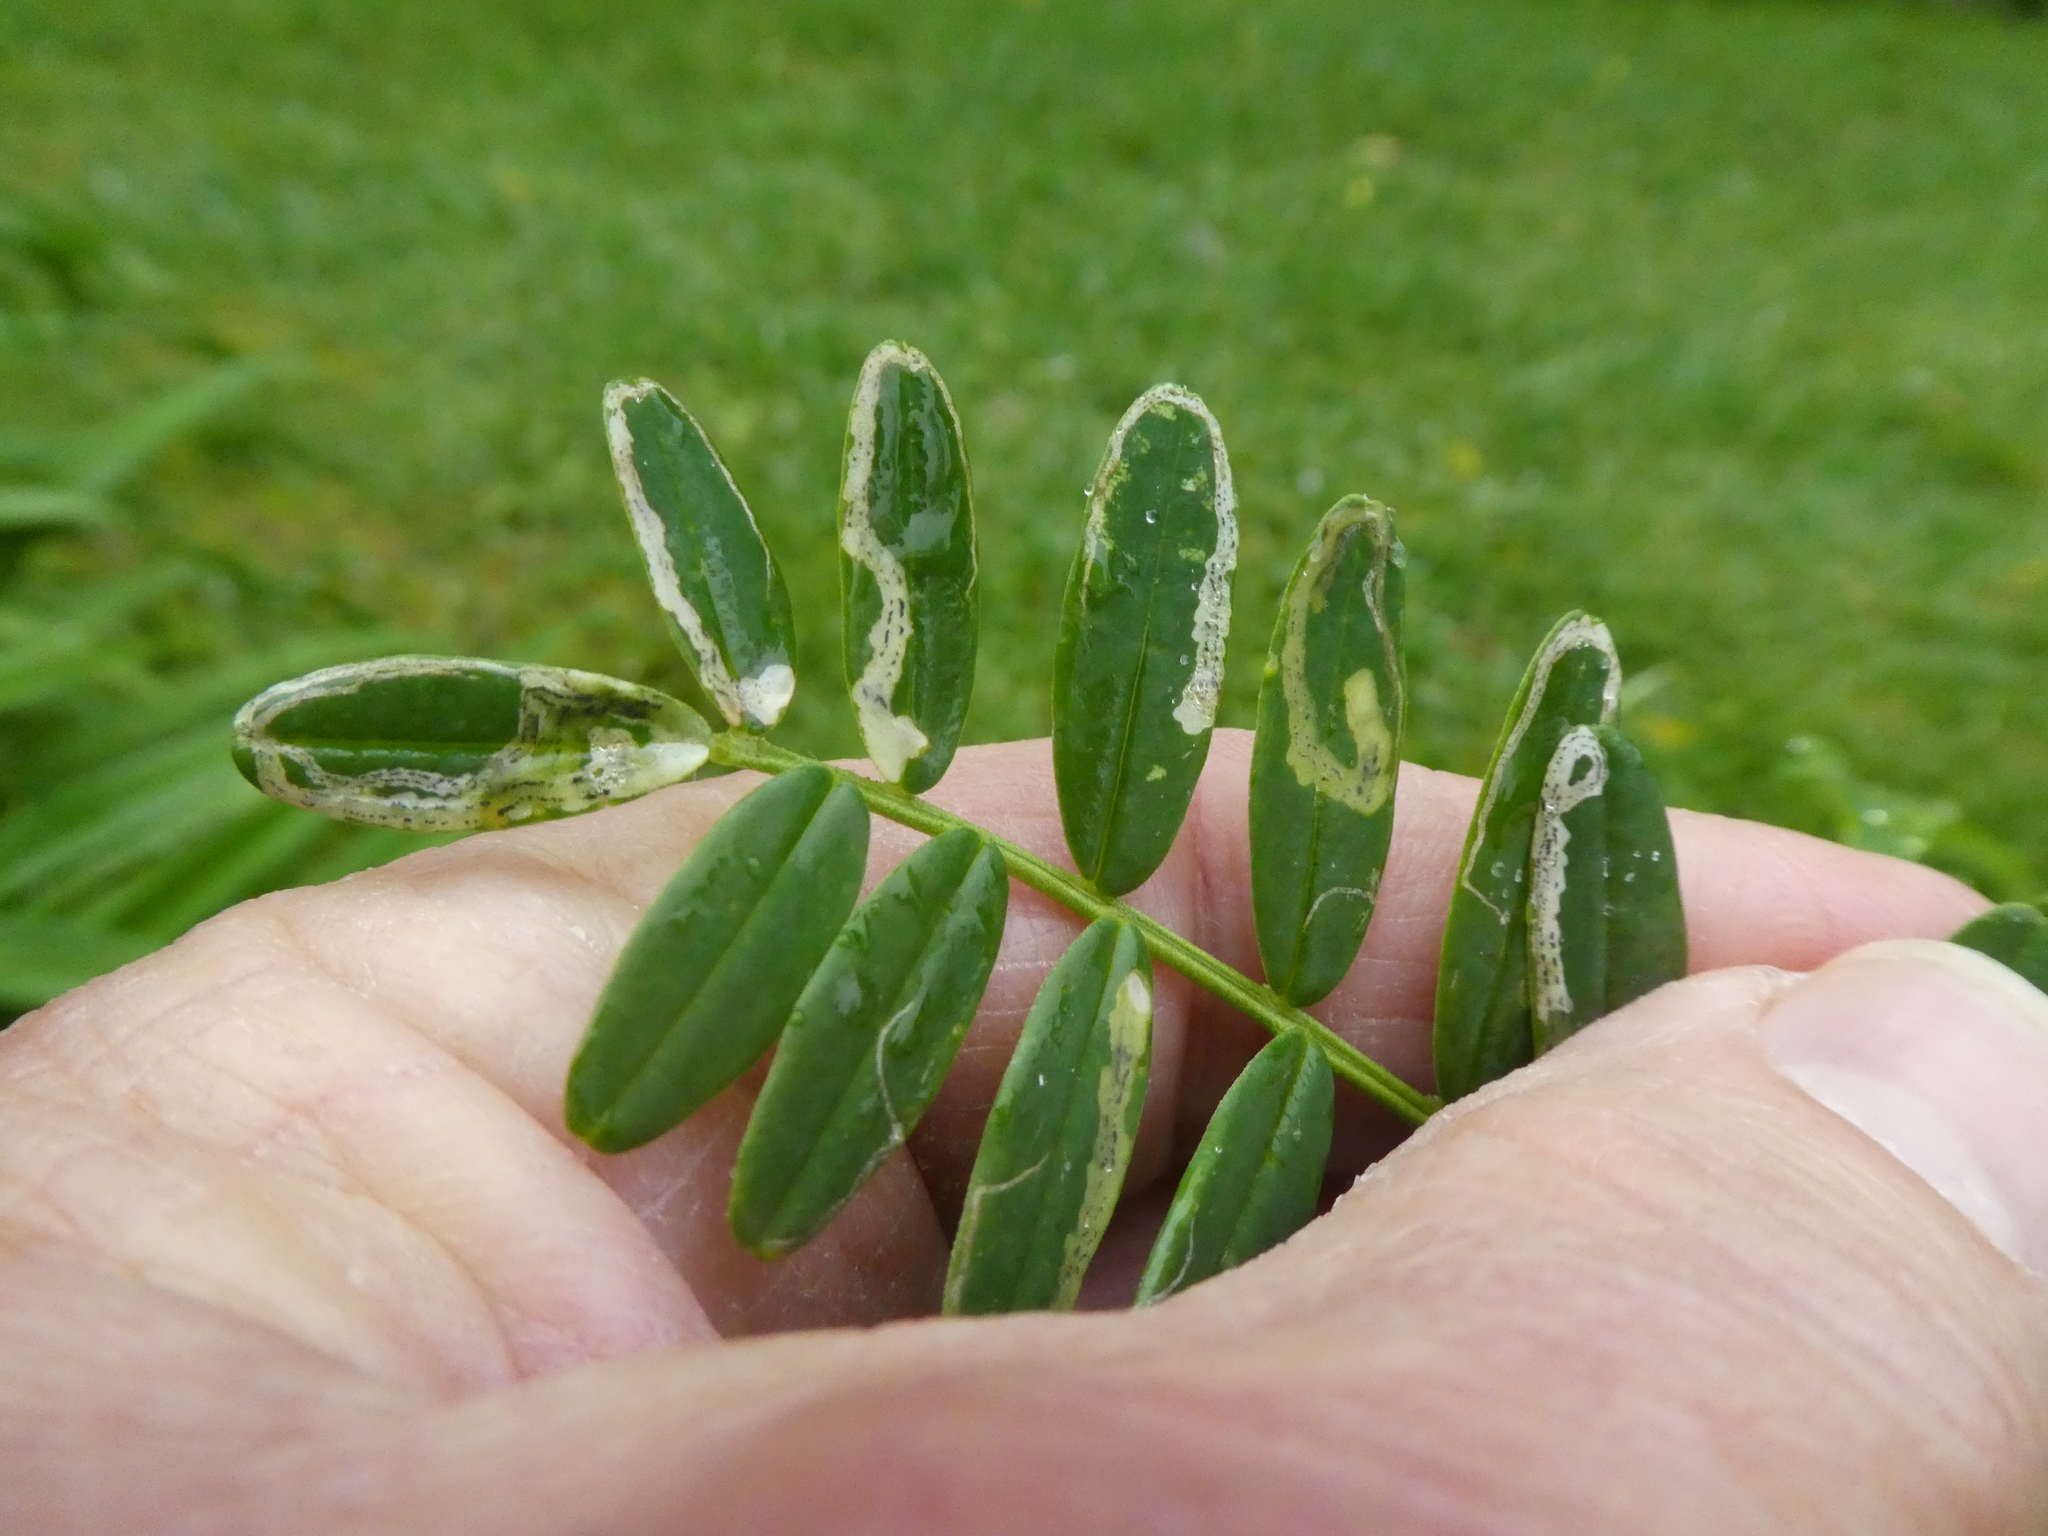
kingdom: Animalia
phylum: Arthropoda
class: Insecta
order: Diptera
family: Agromyzidae
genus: Liriomyza
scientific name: Liriomyza clianthi
